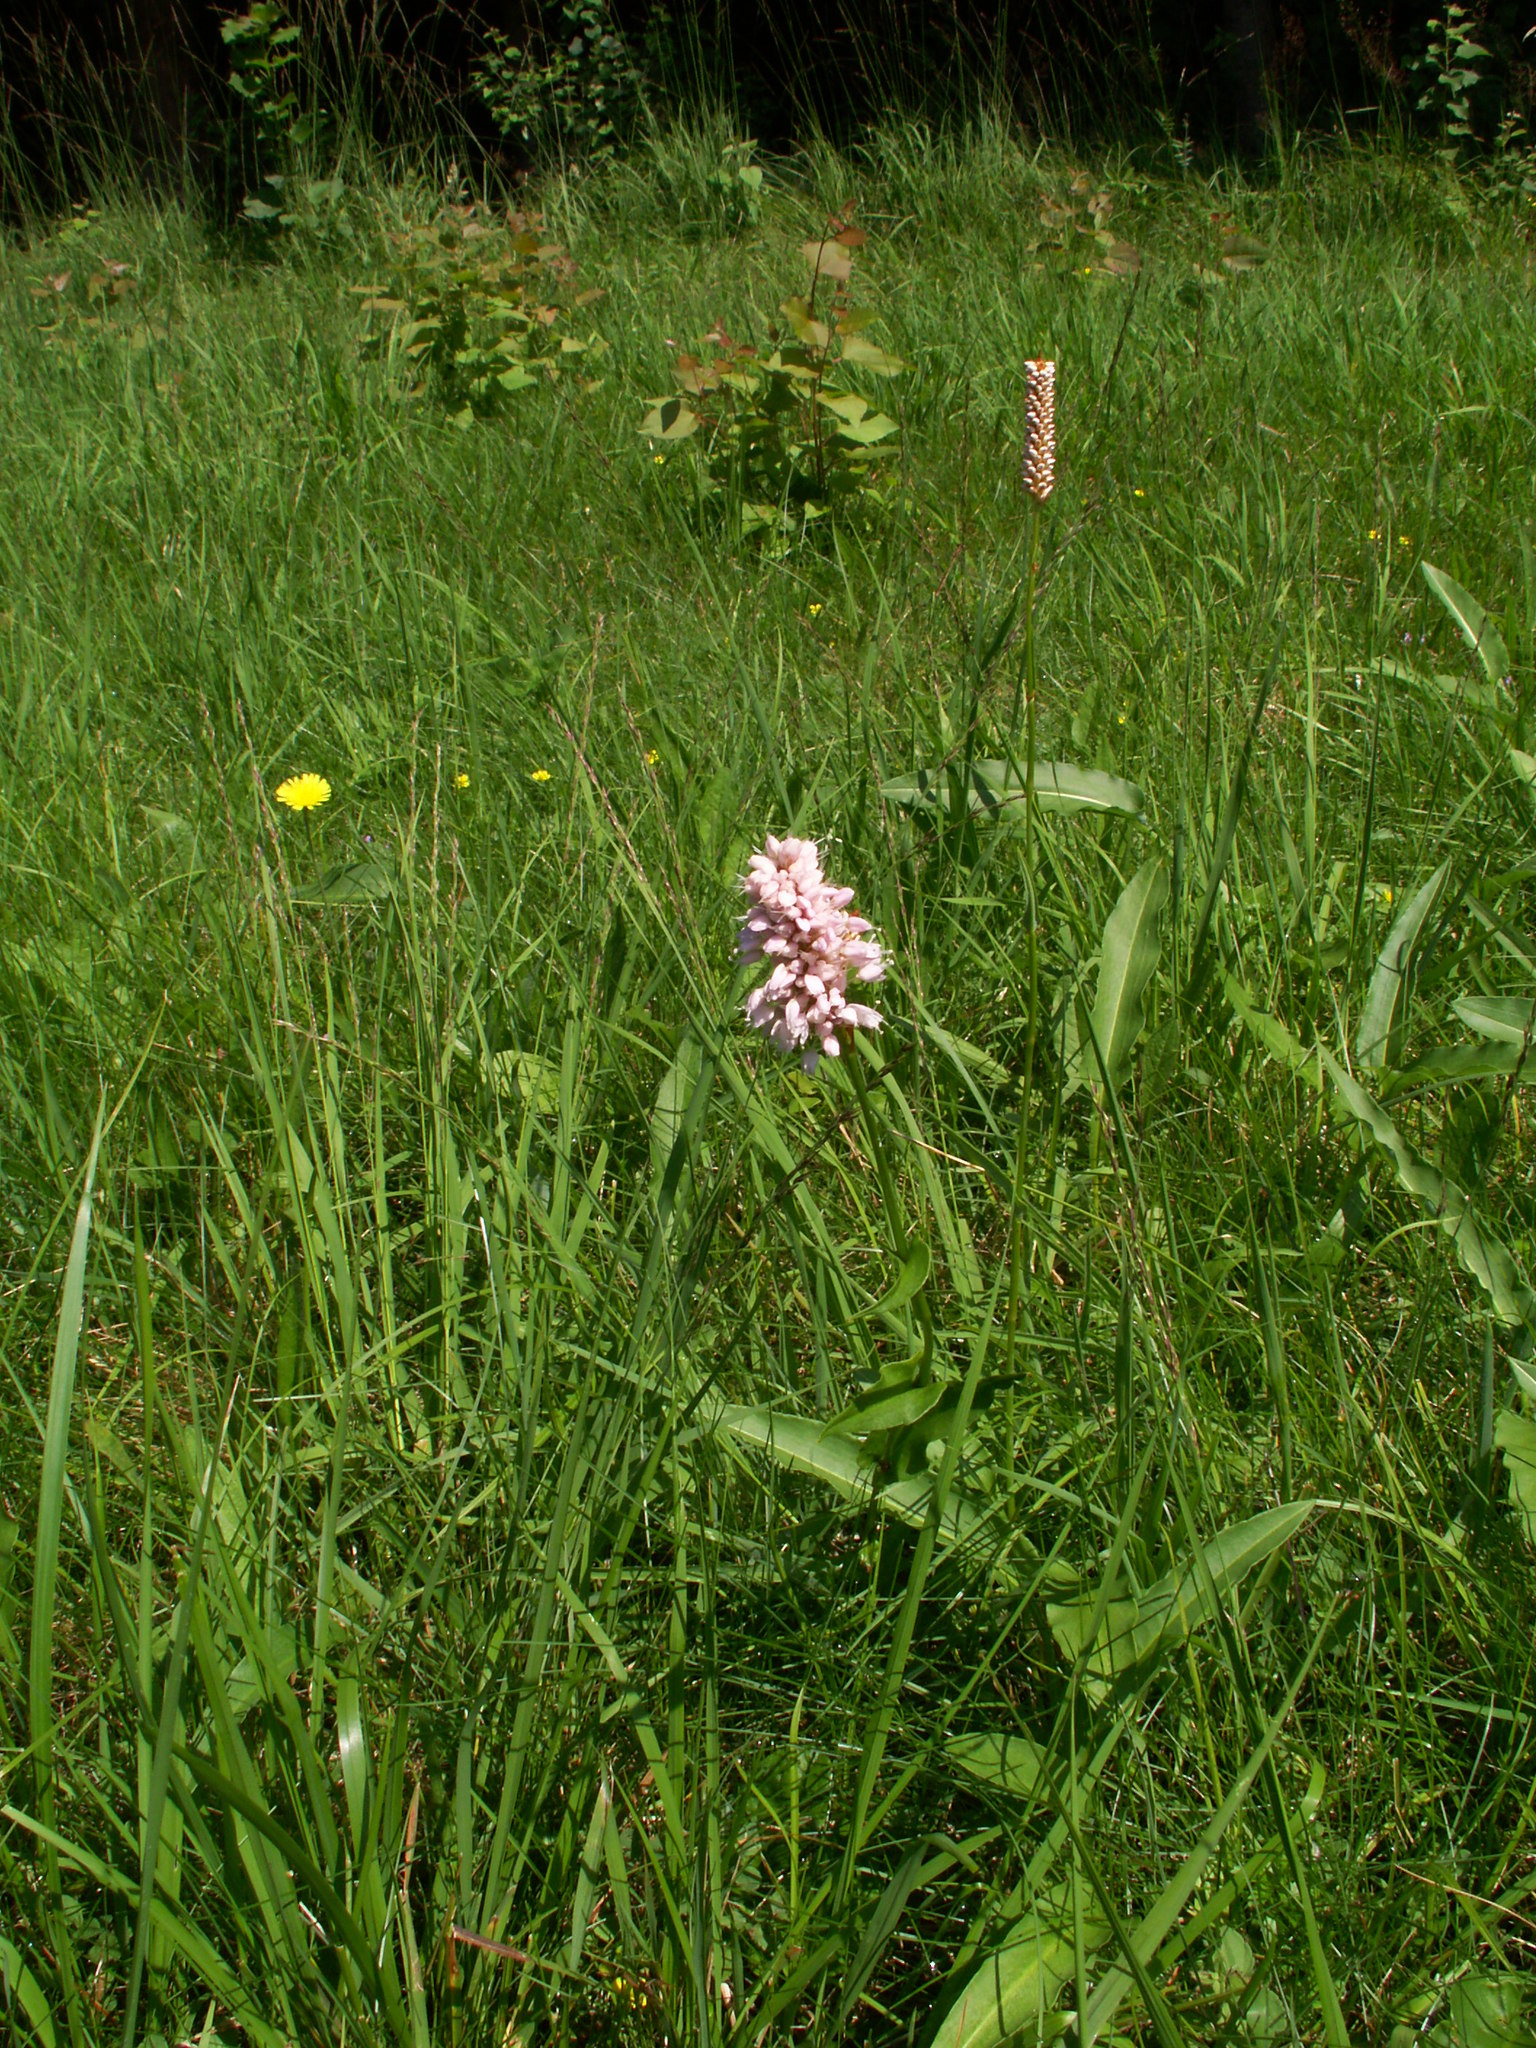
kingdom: Plantae
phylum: Tracheophyta
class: Magnoliopsida
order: Caryophyllales
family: Polygonaceae
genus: Bistorta
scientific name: Bistorta officinalis
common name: Common bistort
